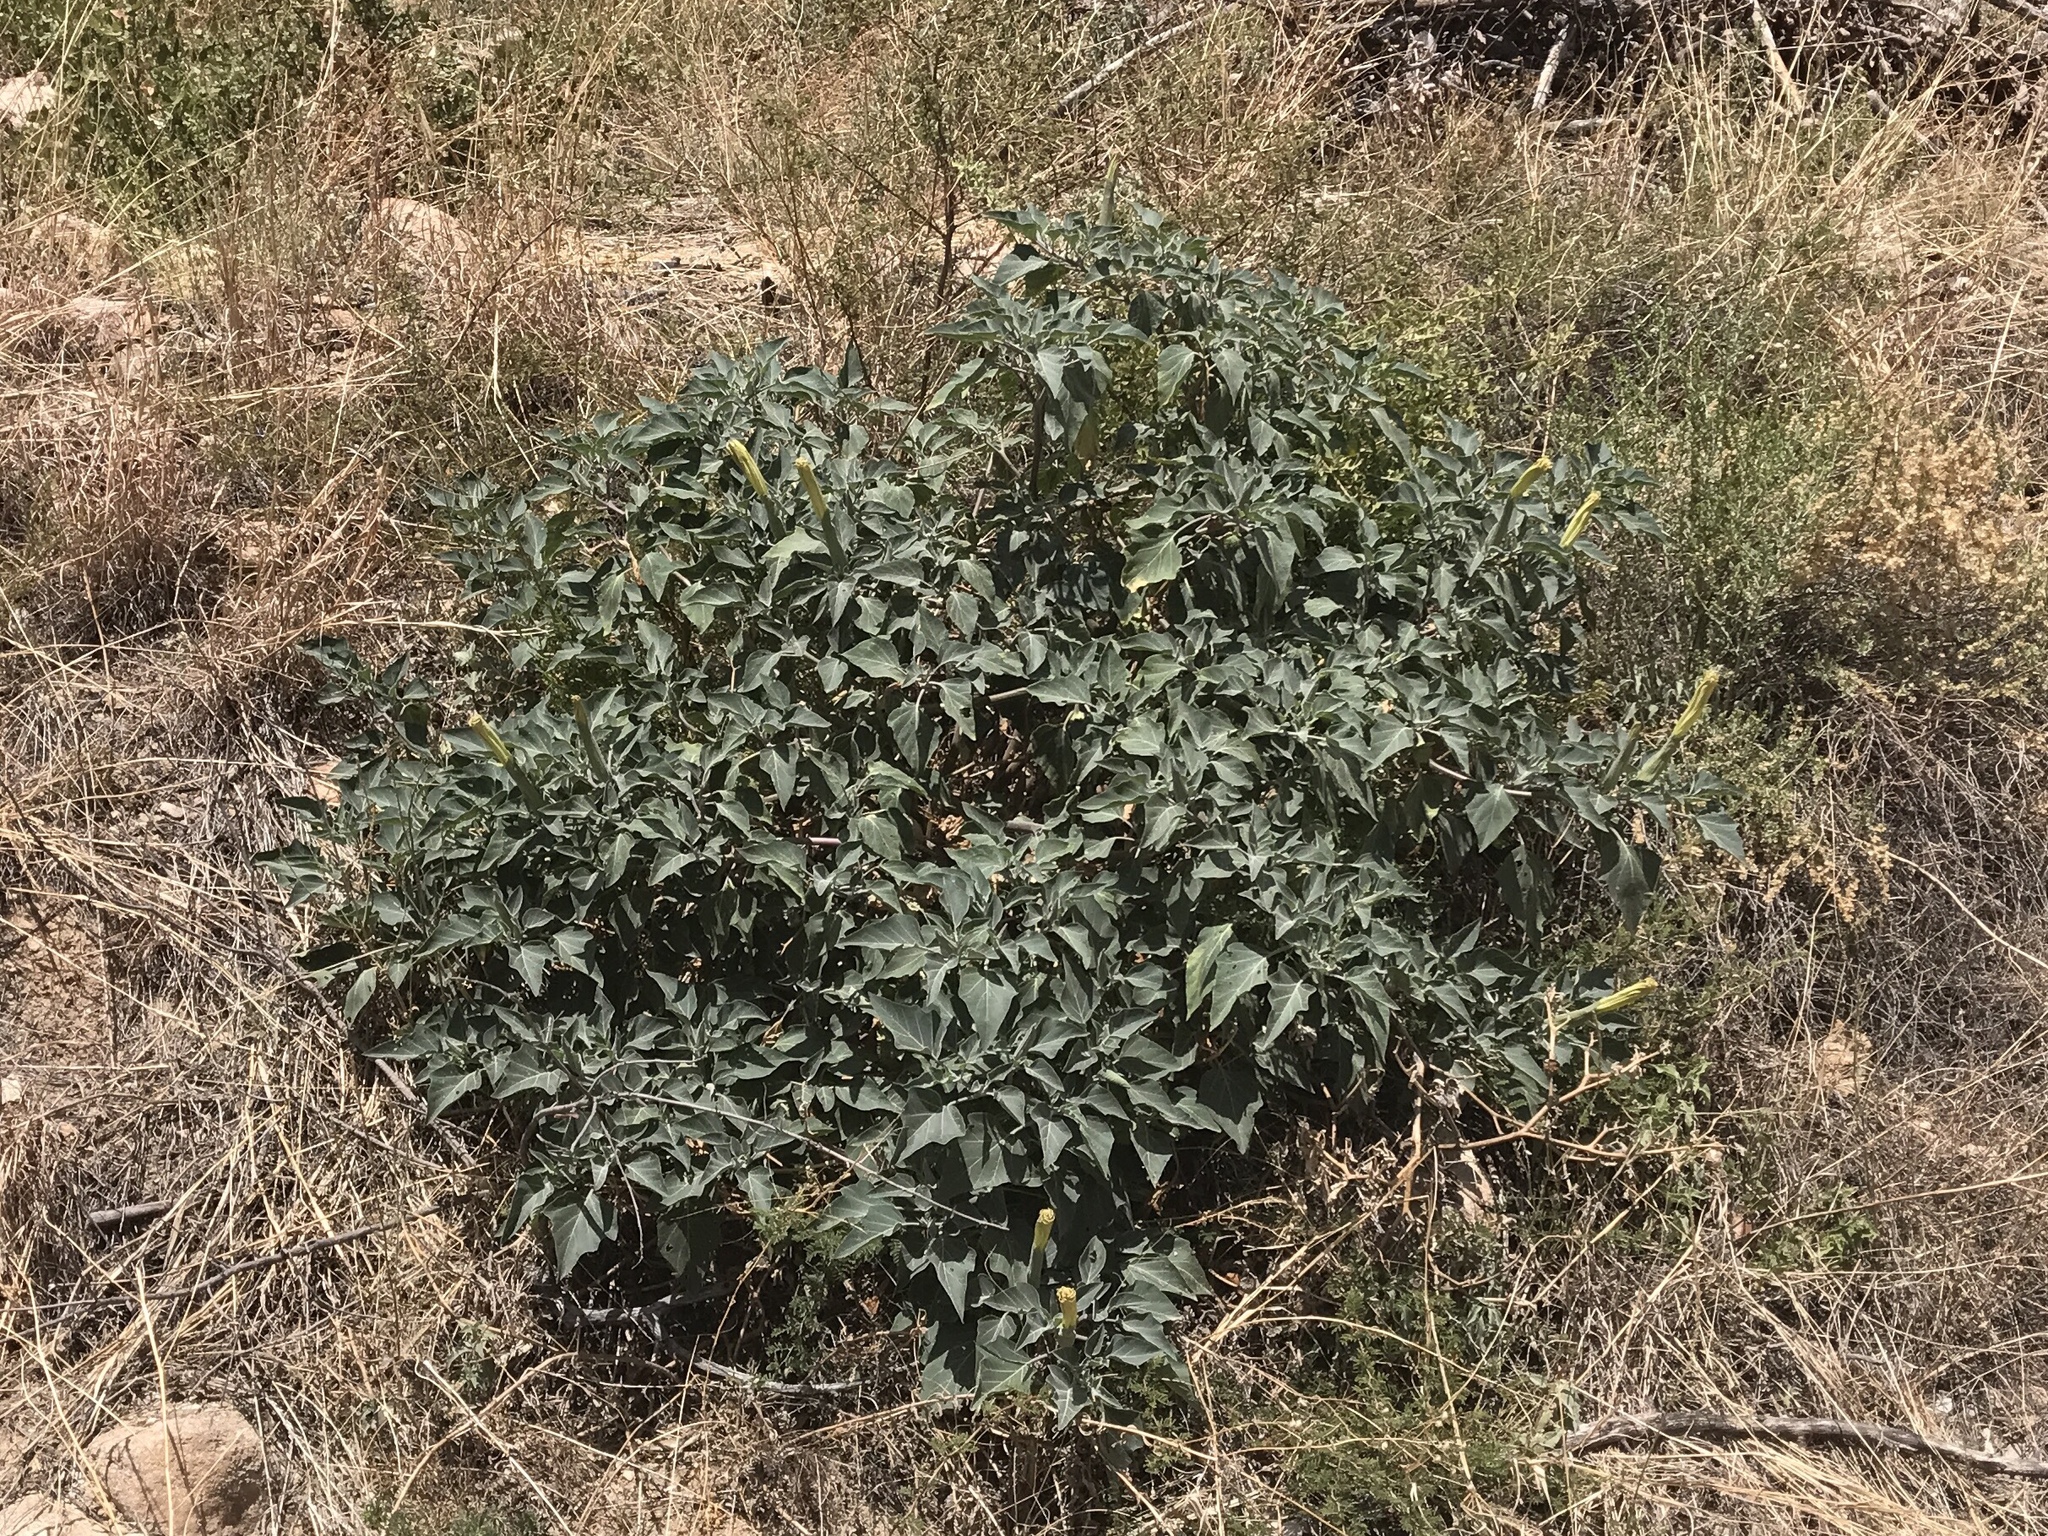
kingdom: Plantae
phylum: Tracheophyta
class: Magnoliopsida
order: Solanales
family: Solanaceae
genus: Datura
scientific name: Datura wrightii
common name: Sacred thorn-apple
